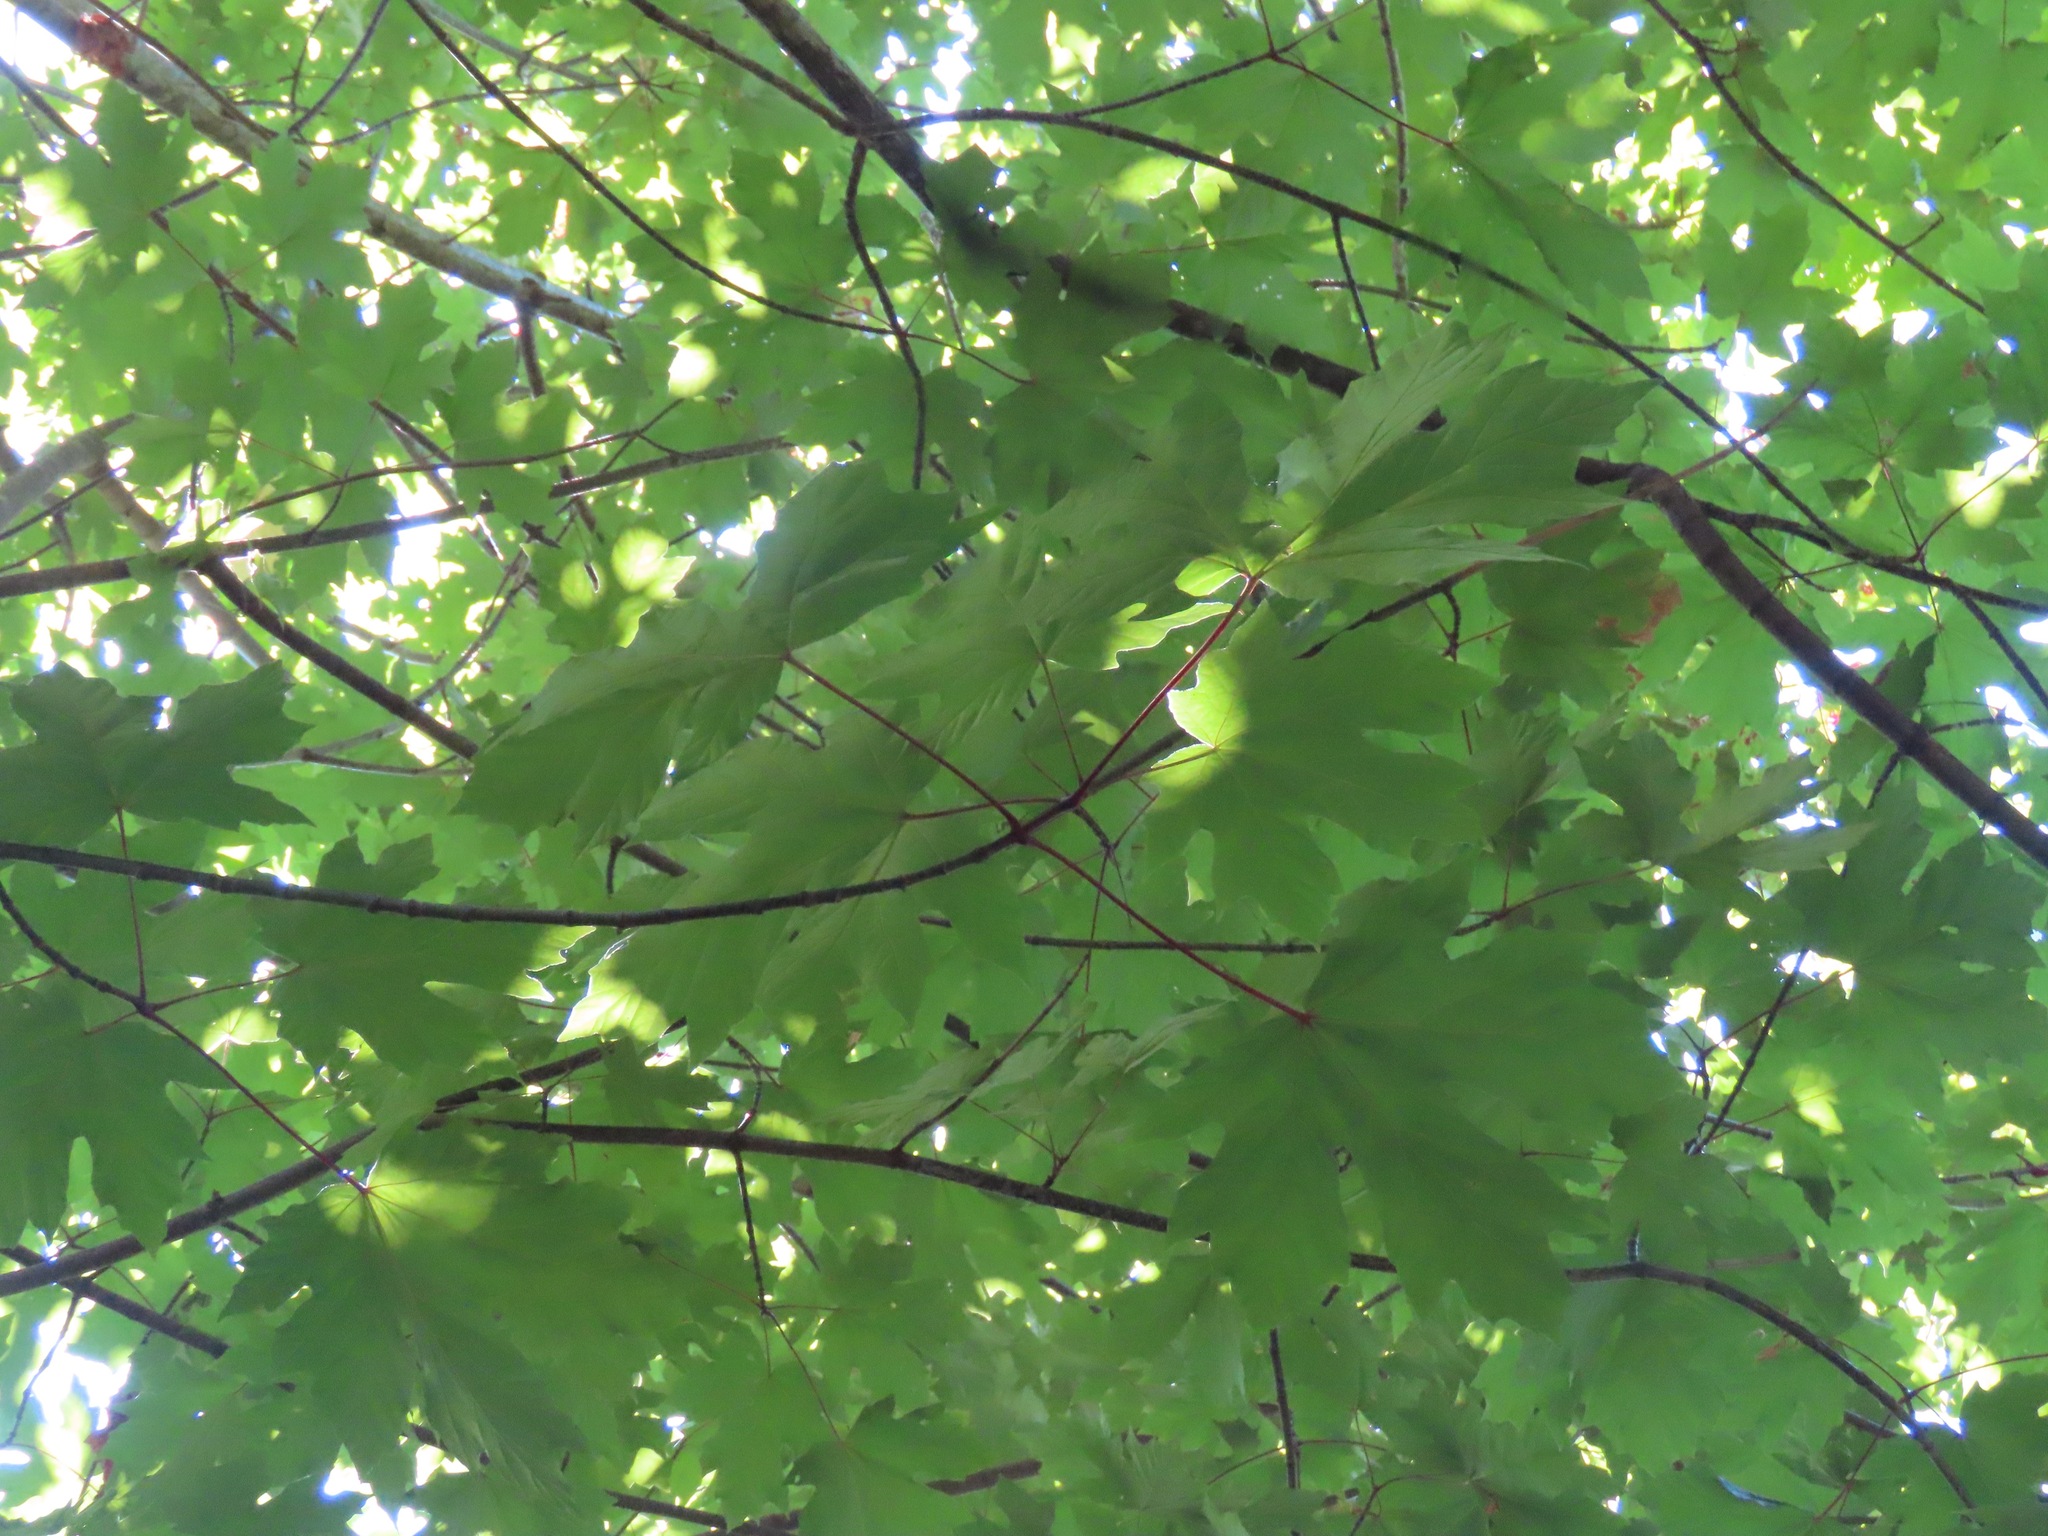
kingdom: Plantae
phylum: Tracheophyta
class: Magnoliopsida
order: Sapindales
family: Sapindaceae
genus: Acer
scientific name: Acer macrophyllum
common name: Oregon maple
